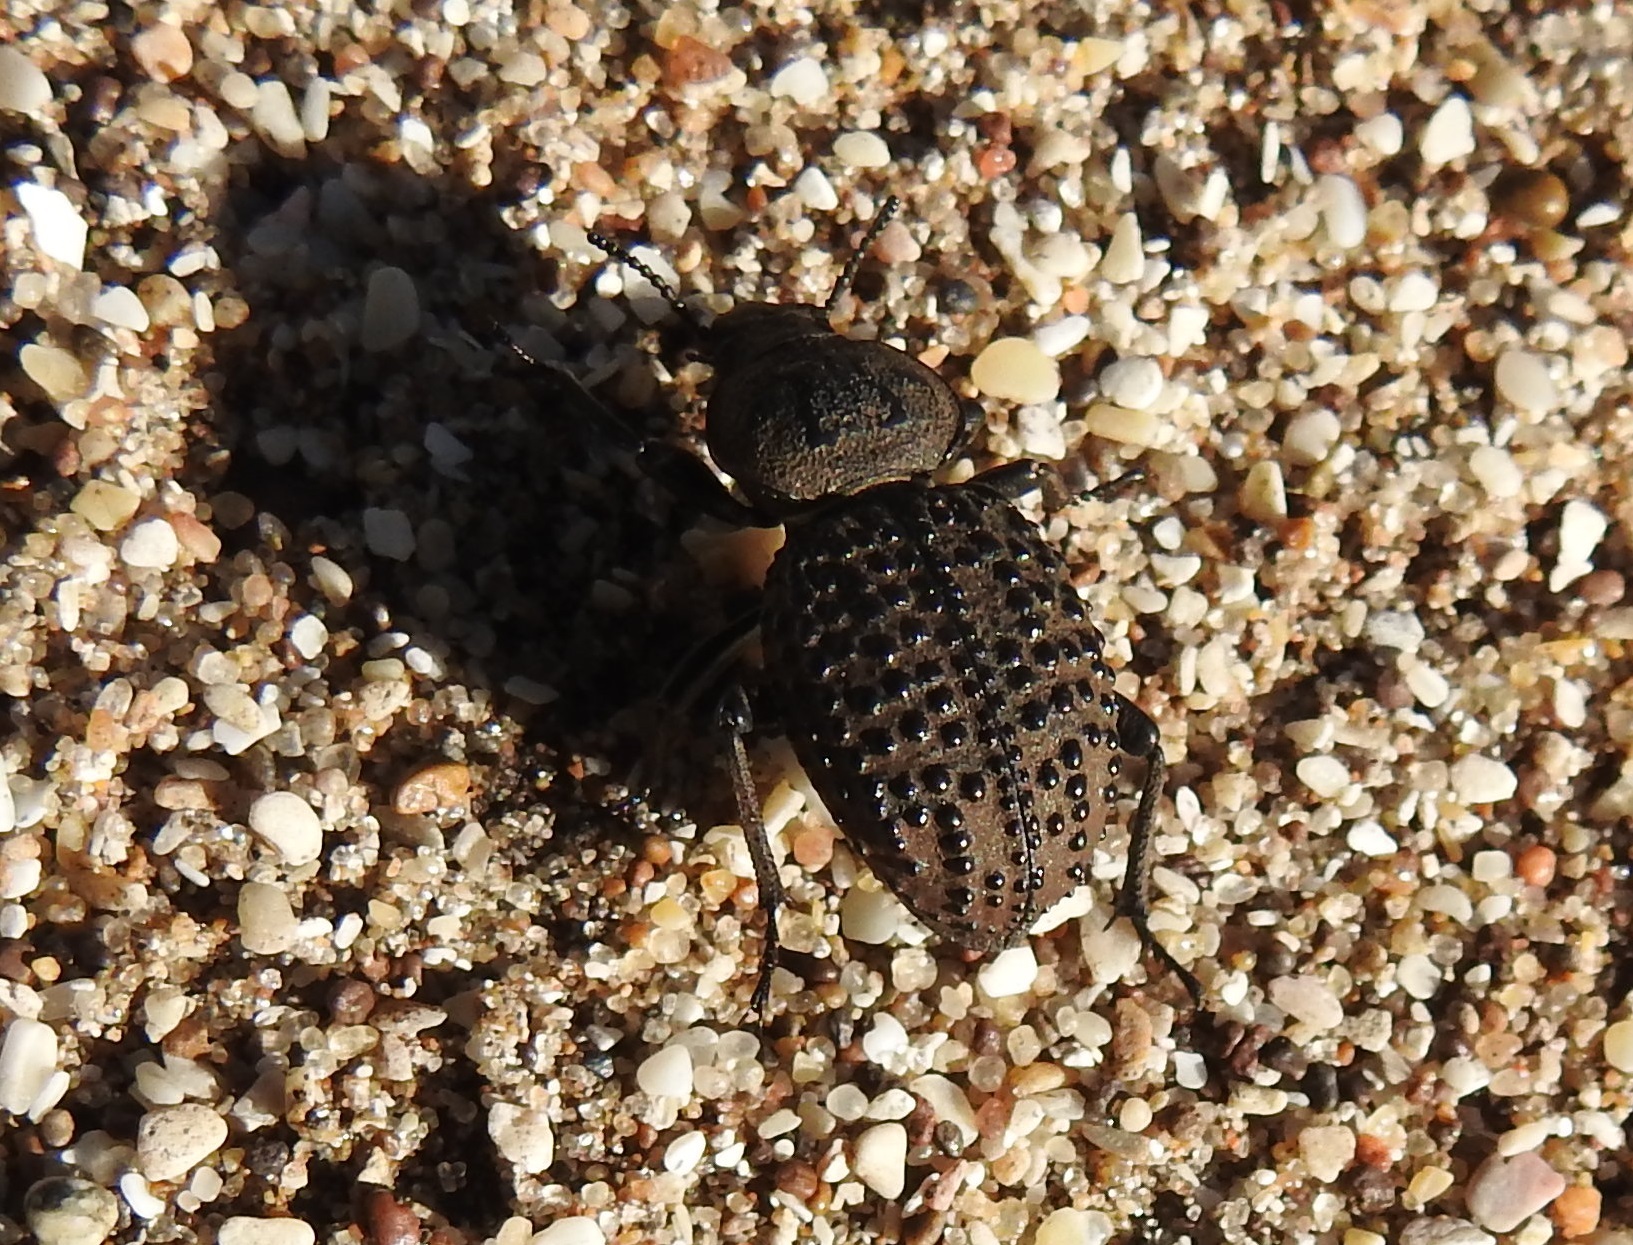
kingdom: Animalia
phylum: Arthropoda
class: Insecta
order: Coleoptera
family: Tenebrionidae
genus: Scotobius
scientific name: Scotobius pilularius
